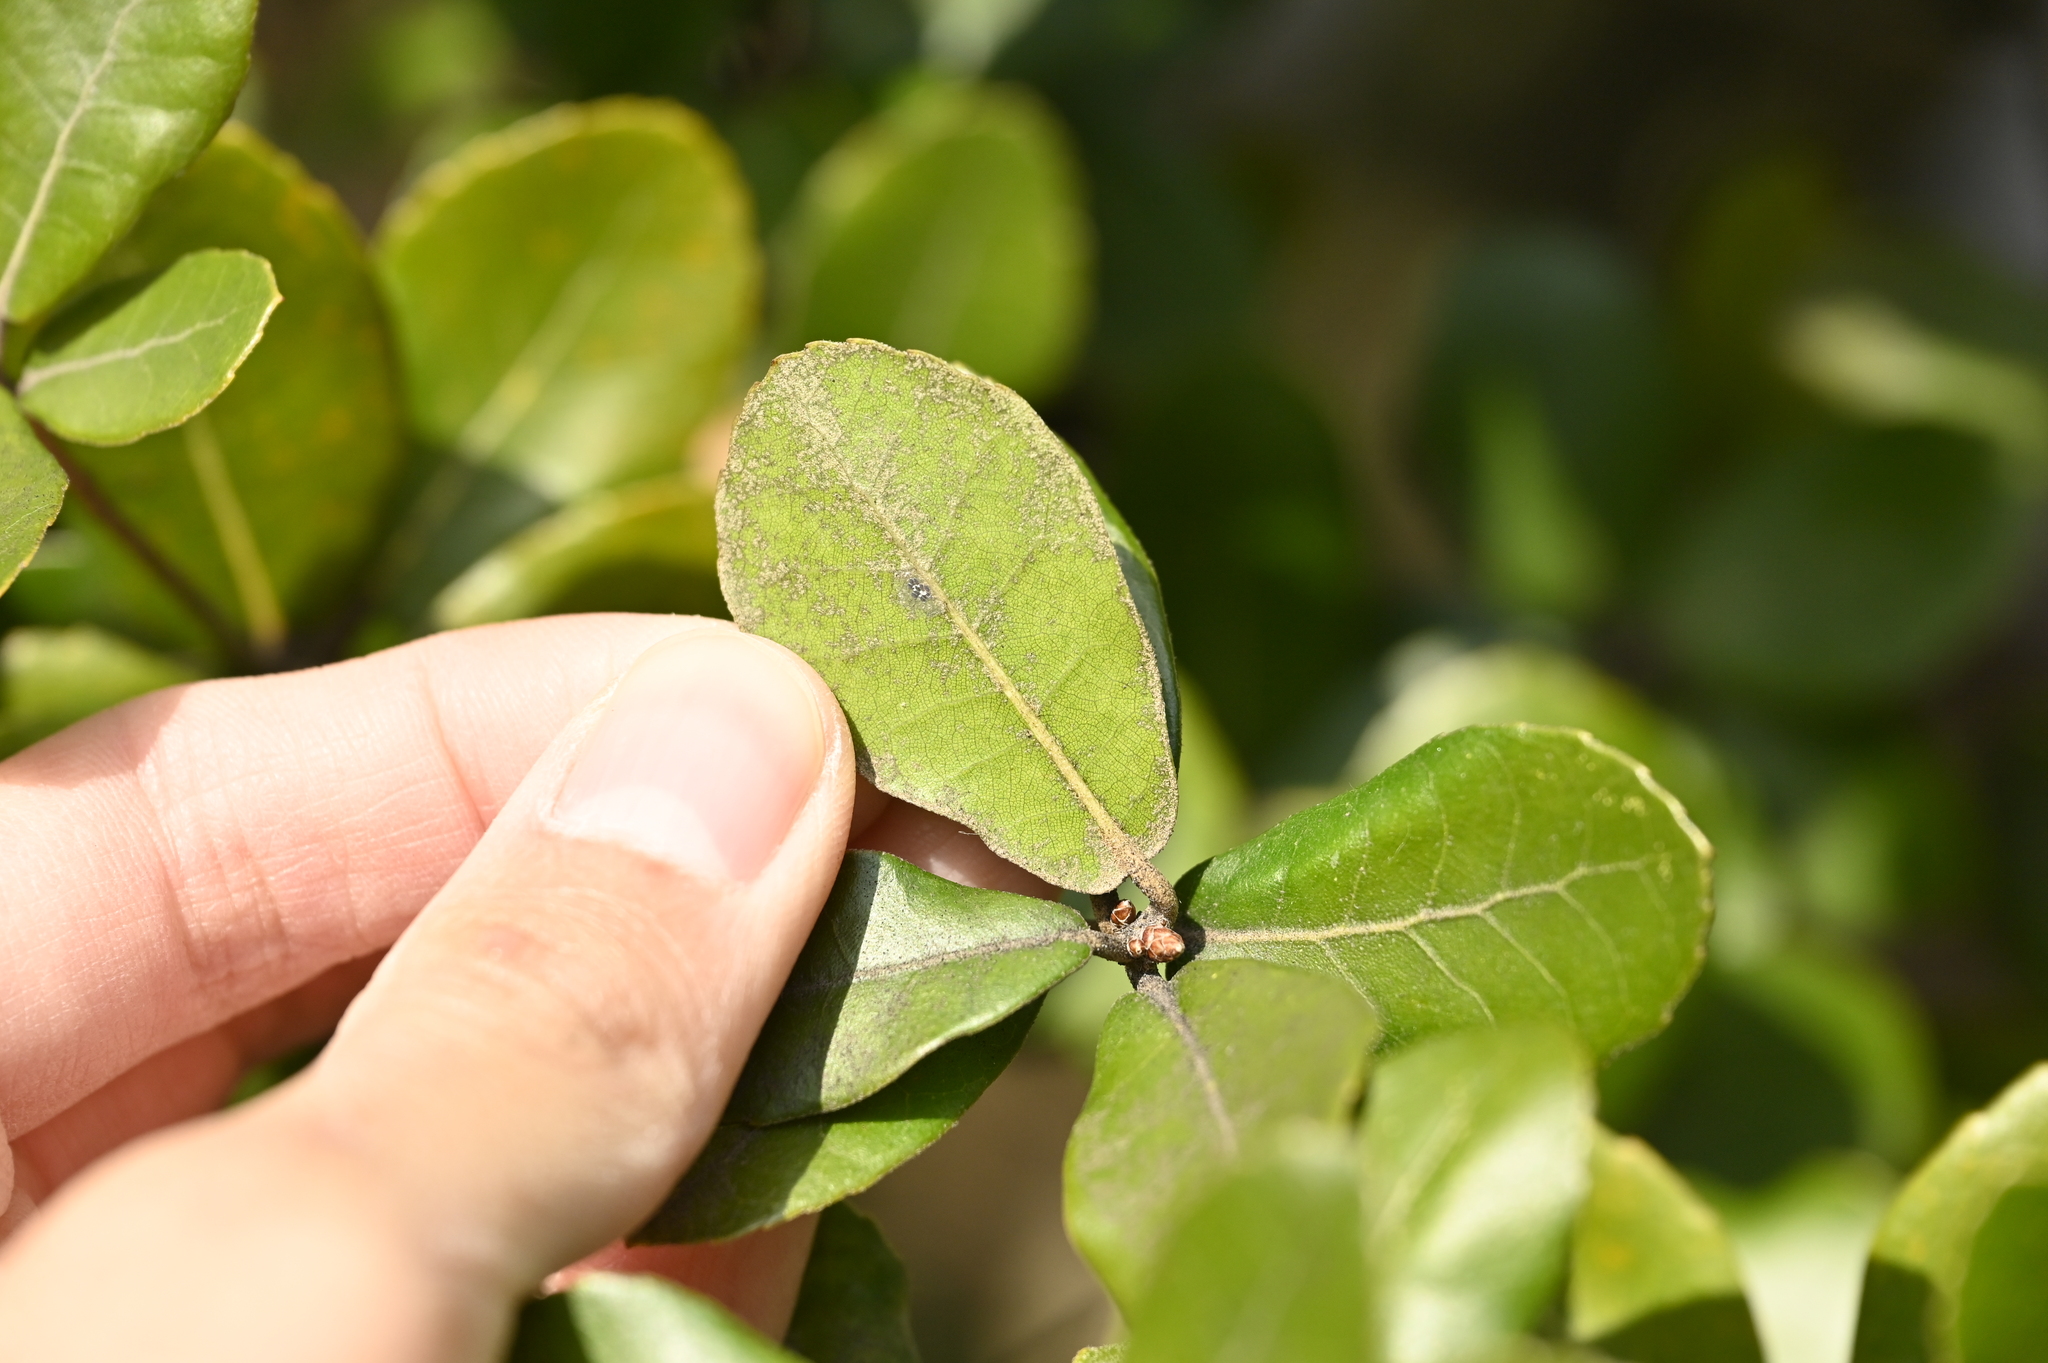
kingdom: Plantae
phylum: Tracheophyta
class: Magnoliopsida
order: Fagales
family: Fagaceae
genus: Quercus
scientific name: Quercus phillyreoides
